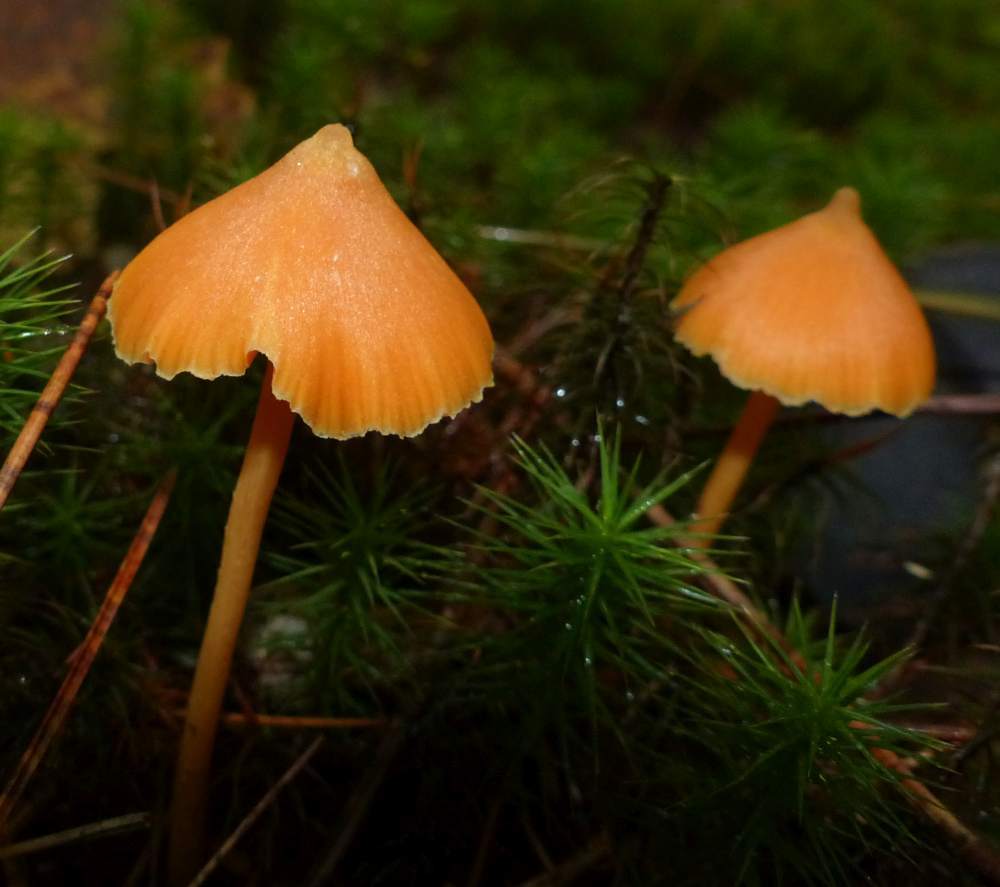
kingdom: Fungi
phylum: Basidiomycota
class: Agaricomycetes
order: Agaricales
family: Entolomataceae
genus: Entoloma
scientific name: Entoloma quadratum
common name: Salmon pinkgill
